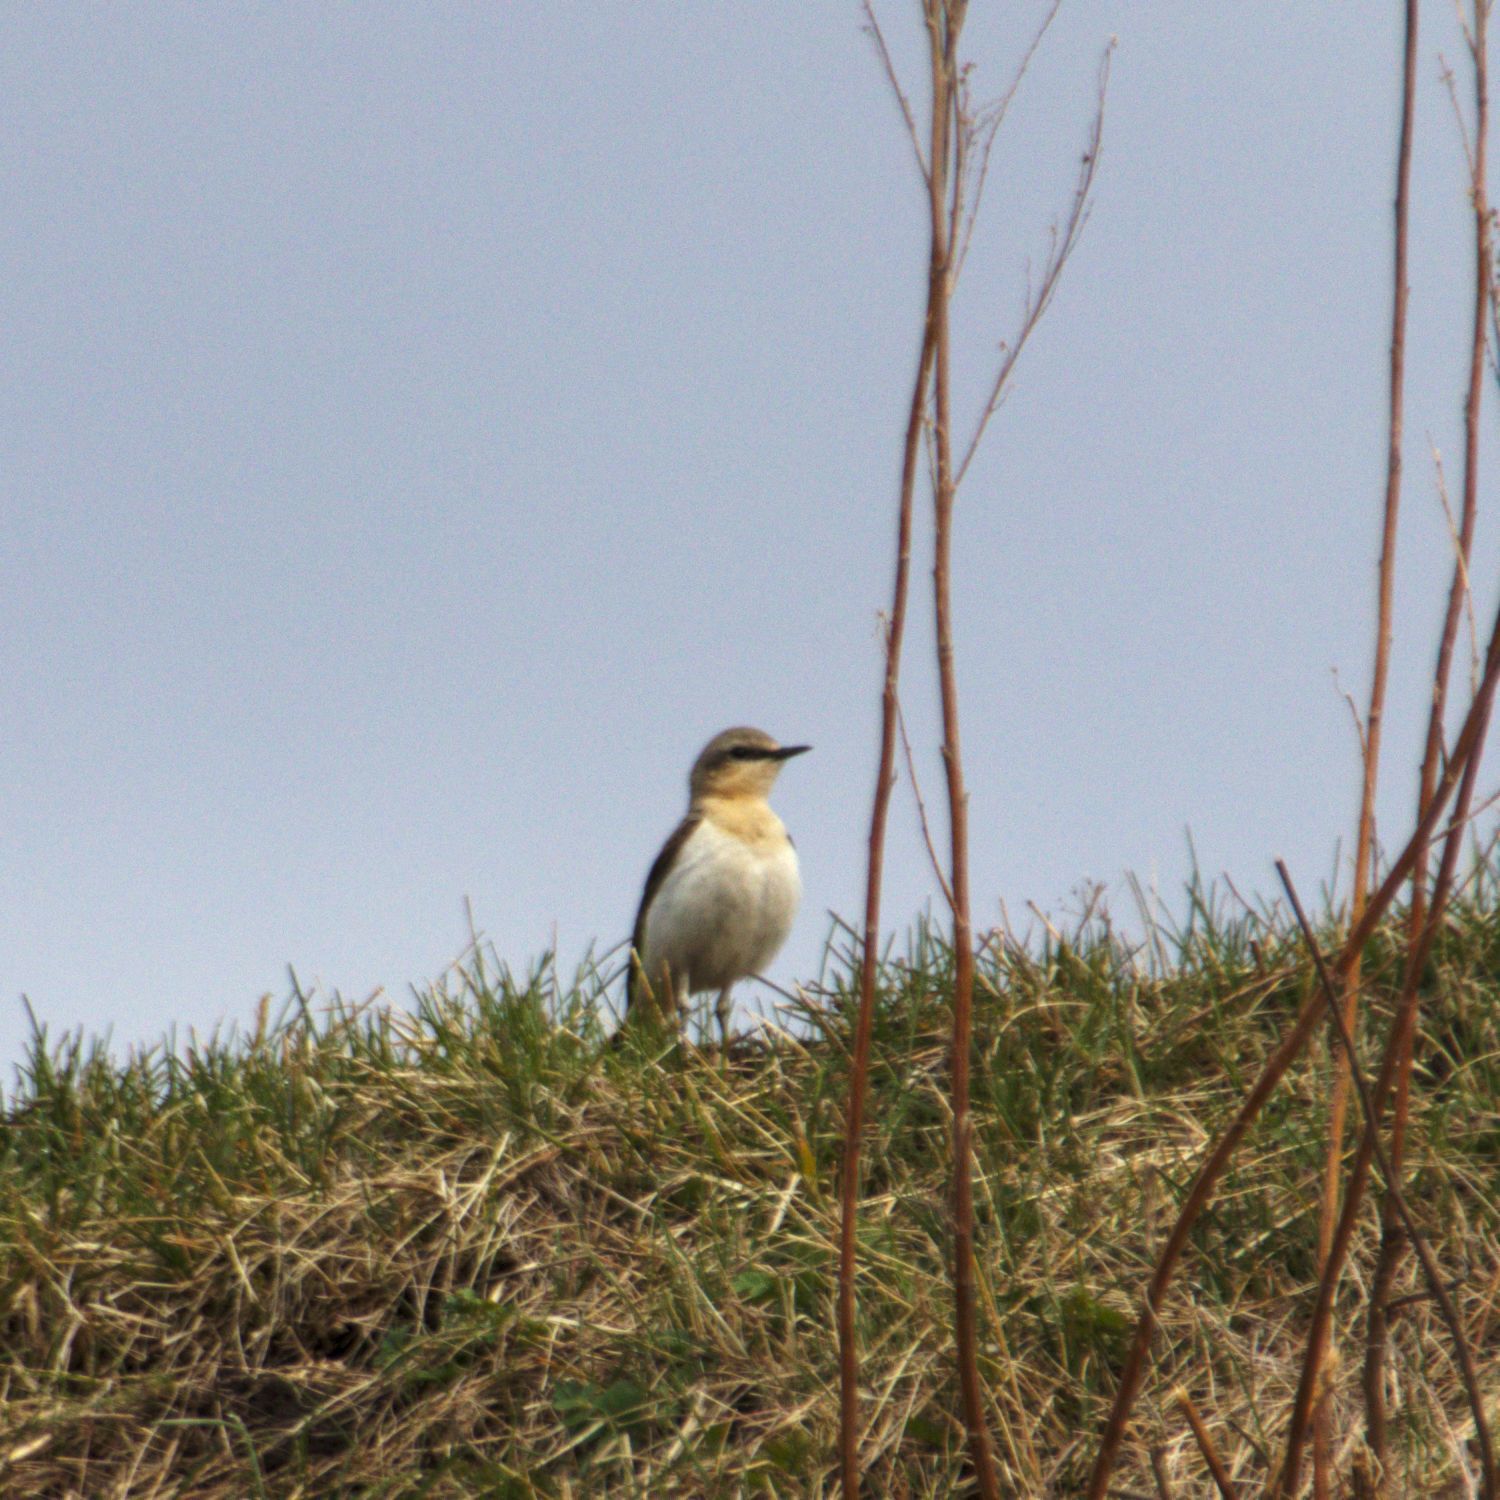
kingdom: Animalia
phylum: Chordata
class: Aves
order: Passeriformes
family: Muscicapidae
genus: Oenanthe
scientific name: Oenanthe oenanthe
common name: Northern wheatear
